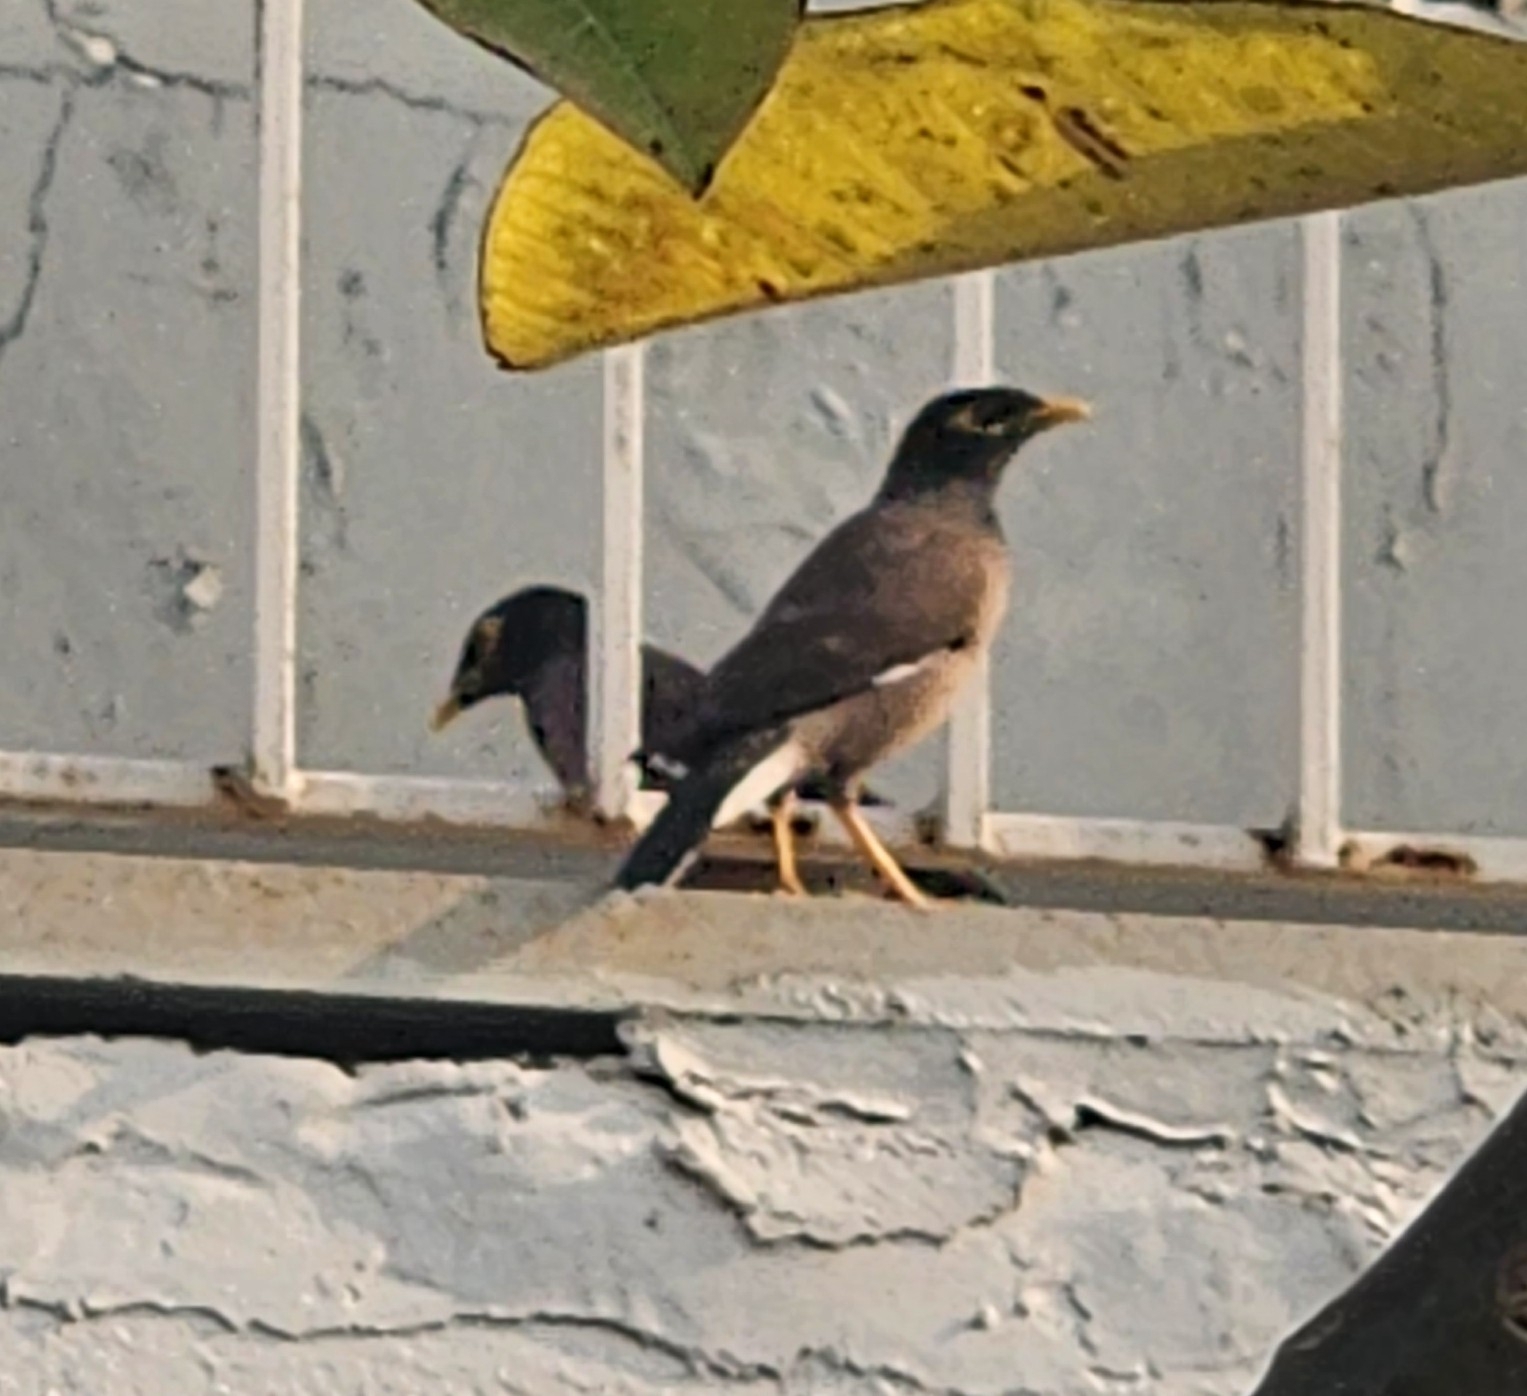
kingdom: Animalia
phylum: Chordata
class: Aves
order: Passeriformes
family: Sturnidae
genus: Acridotheres
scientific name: Acridotheres tristis
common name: Common myna
